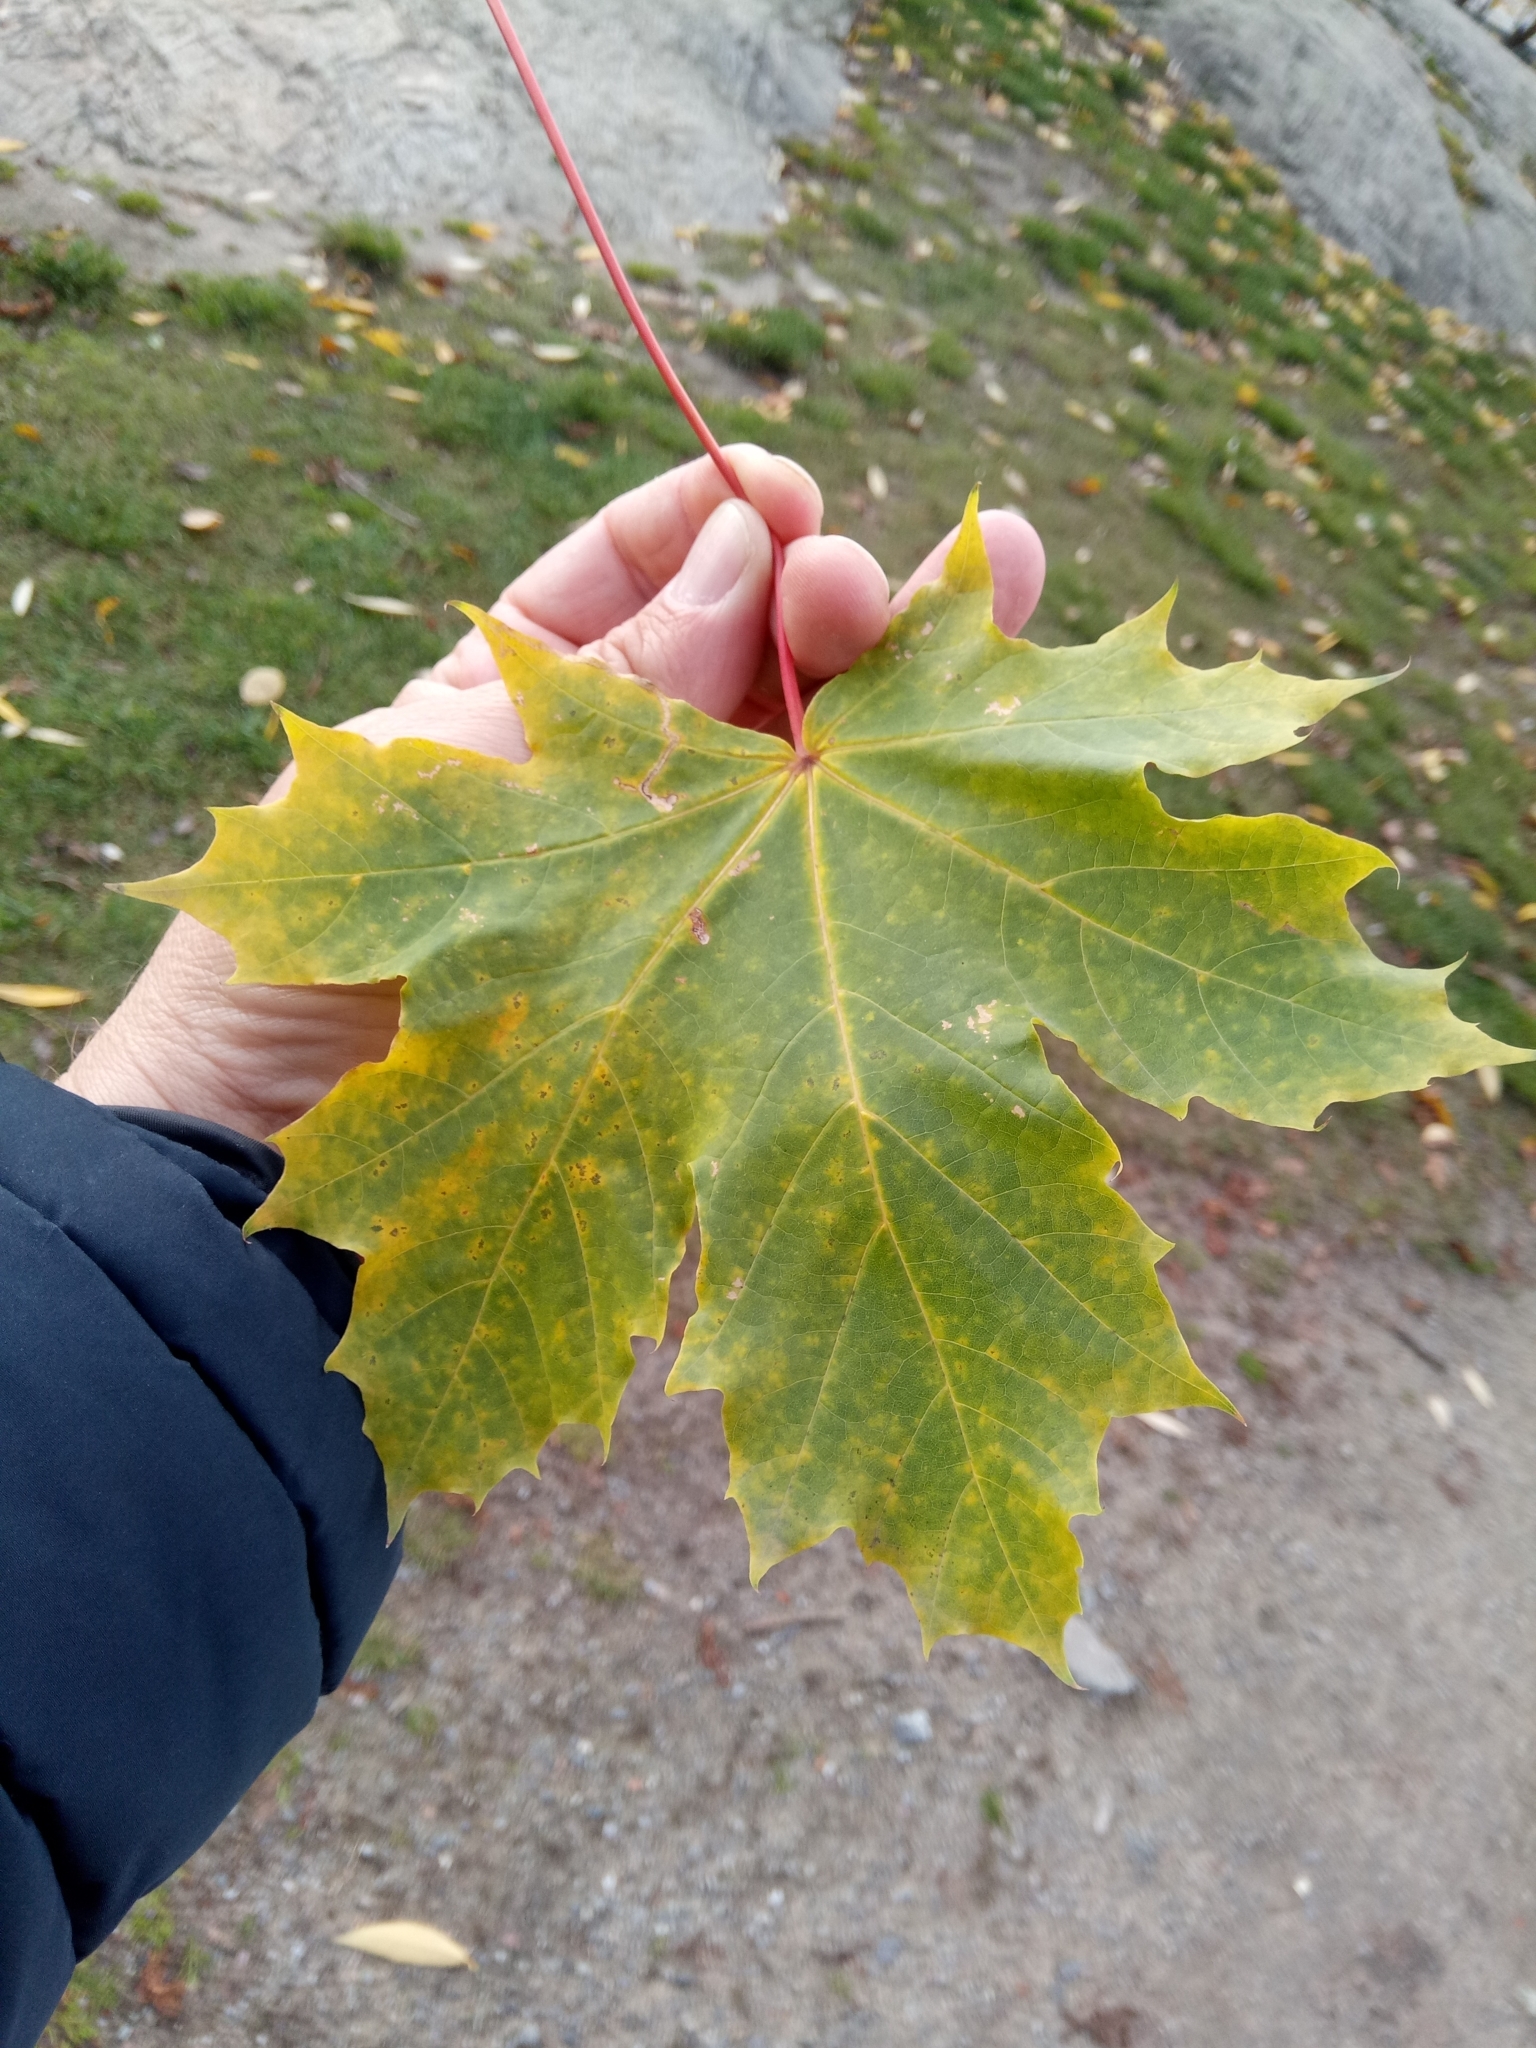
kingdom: Plantae
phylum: Tracheophyta
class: Magnoliopsida
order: Sapindales
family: Sapindaceae
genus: Acer
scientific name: Acer platanoides
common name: Norway maple
